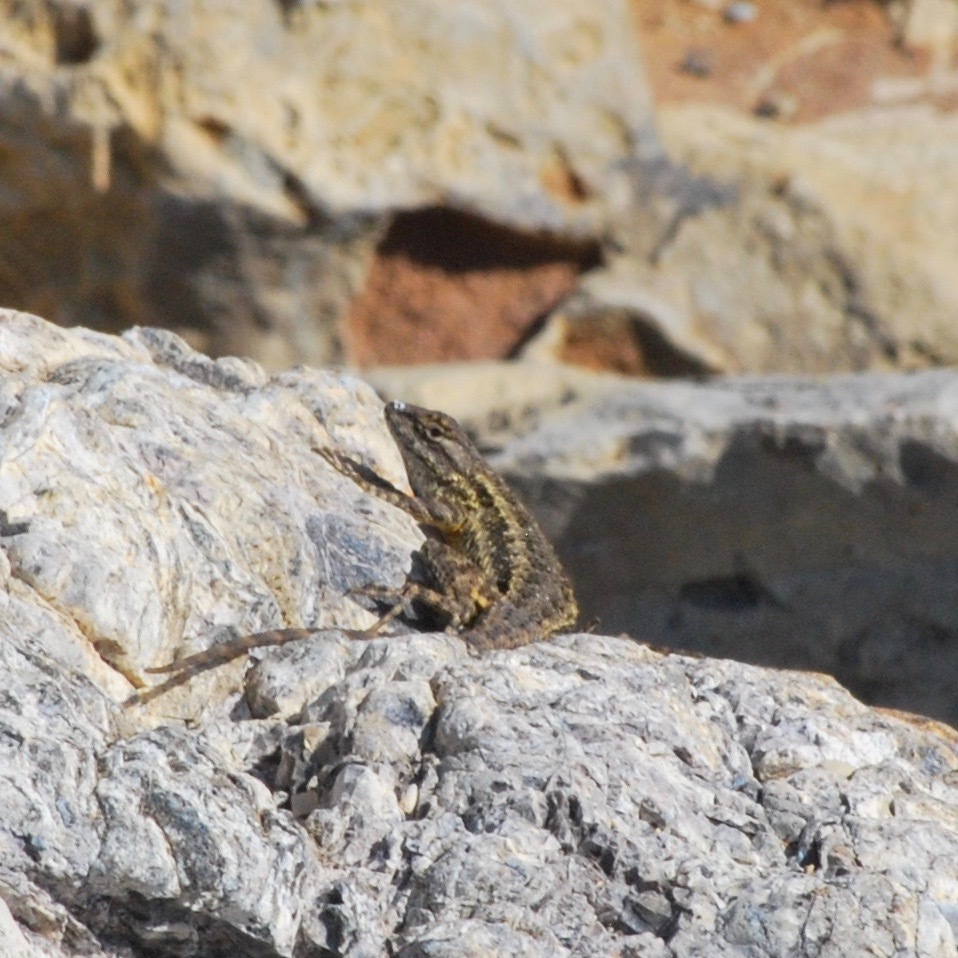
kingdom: Animalia
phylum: Chordata
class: Squamata
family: Phrynosomatidae
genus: Sceloporus
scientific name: Sceloporus occidentalis
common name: Western fence lizard
